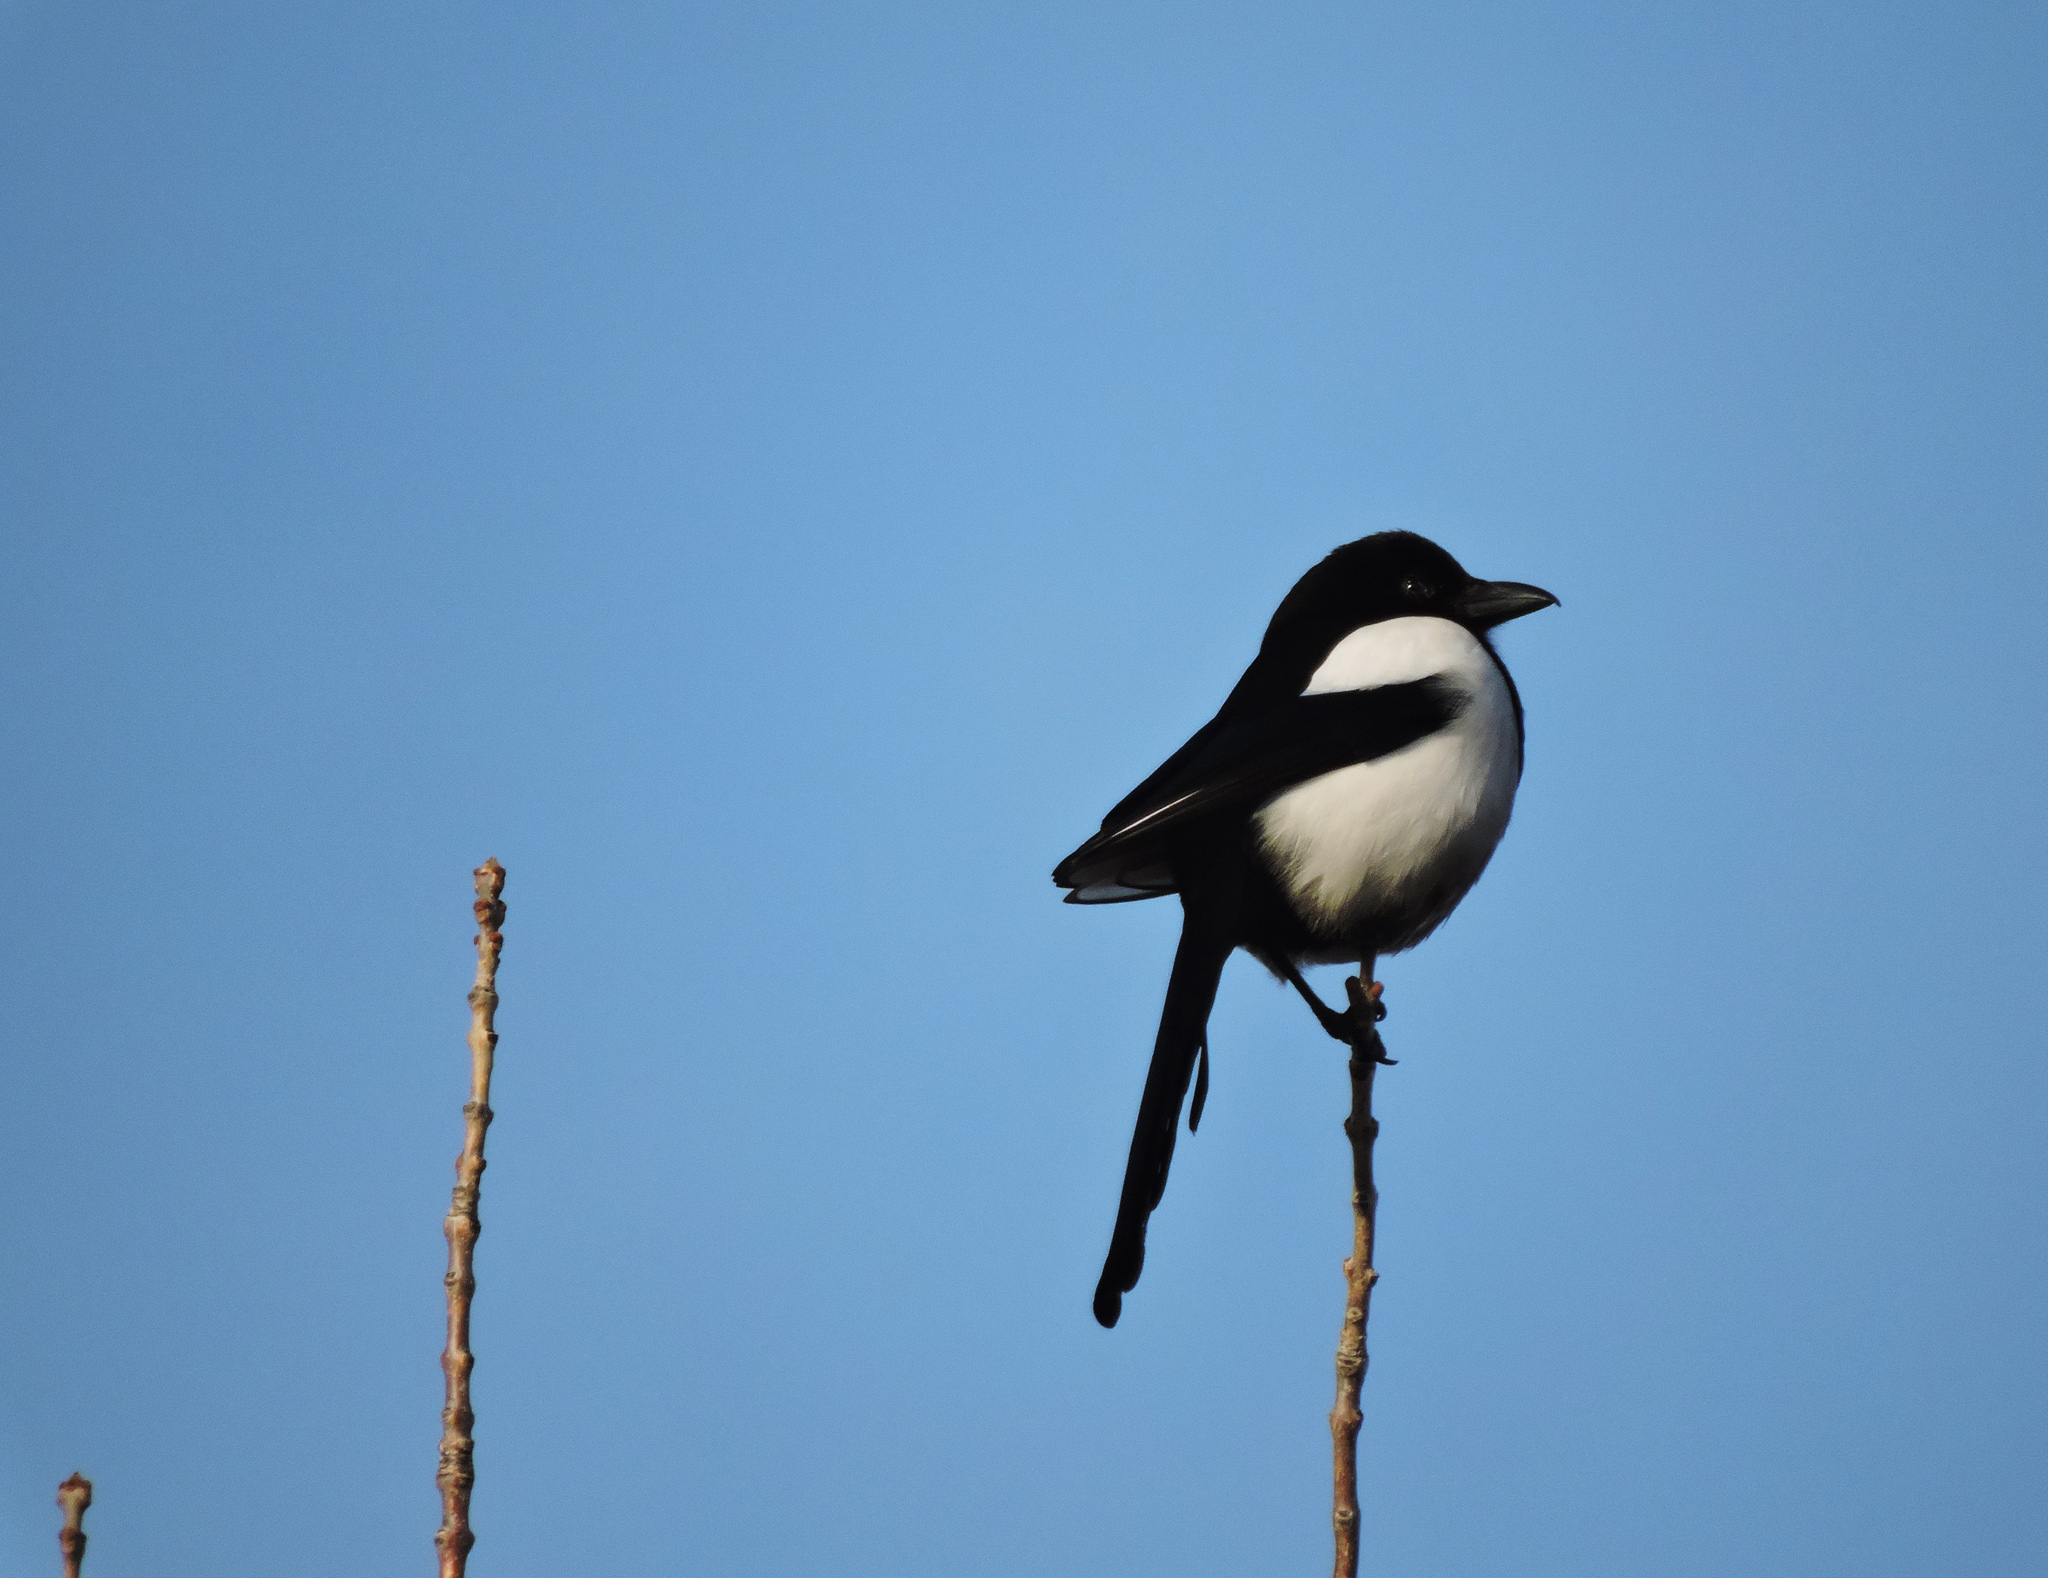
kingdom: Animalia
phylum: Chordata
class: Aves
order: Passeriformes
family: Corvidae
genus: Pica
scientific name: Pica pica
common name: Eurasian magpie
